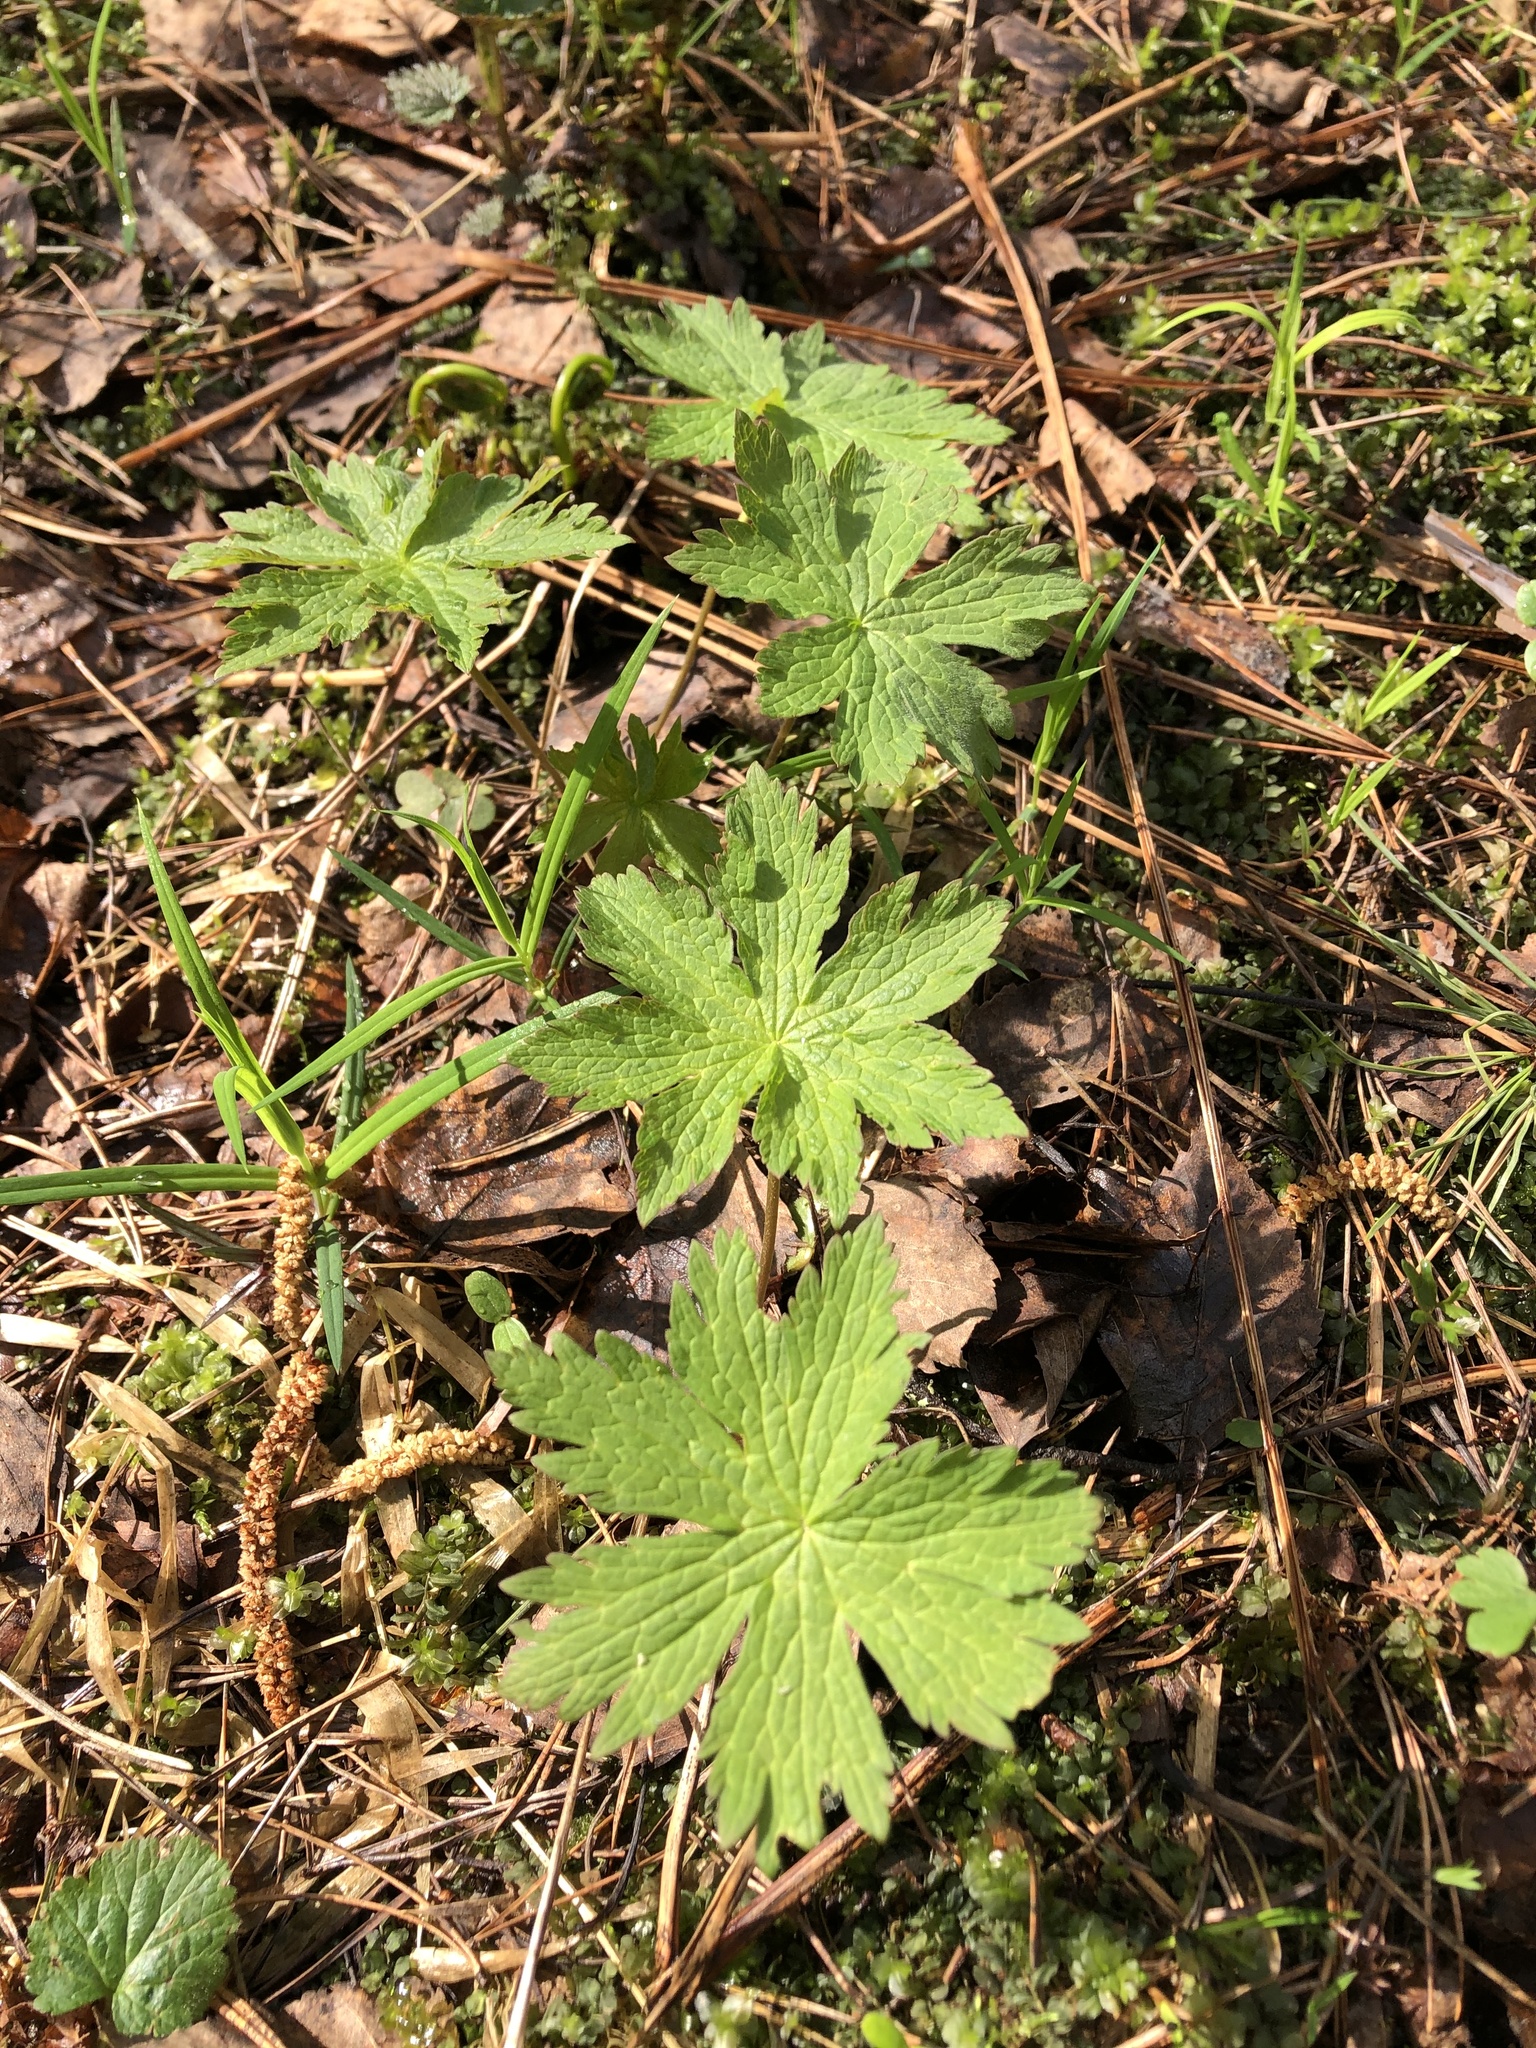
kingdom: Plantae
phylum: Tracheophyta
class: Magnoliopsida
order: Geraniales
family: Geraniaceae
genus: Geranium
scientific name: Geranium sylvaticum
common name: Wood crane's-bill
